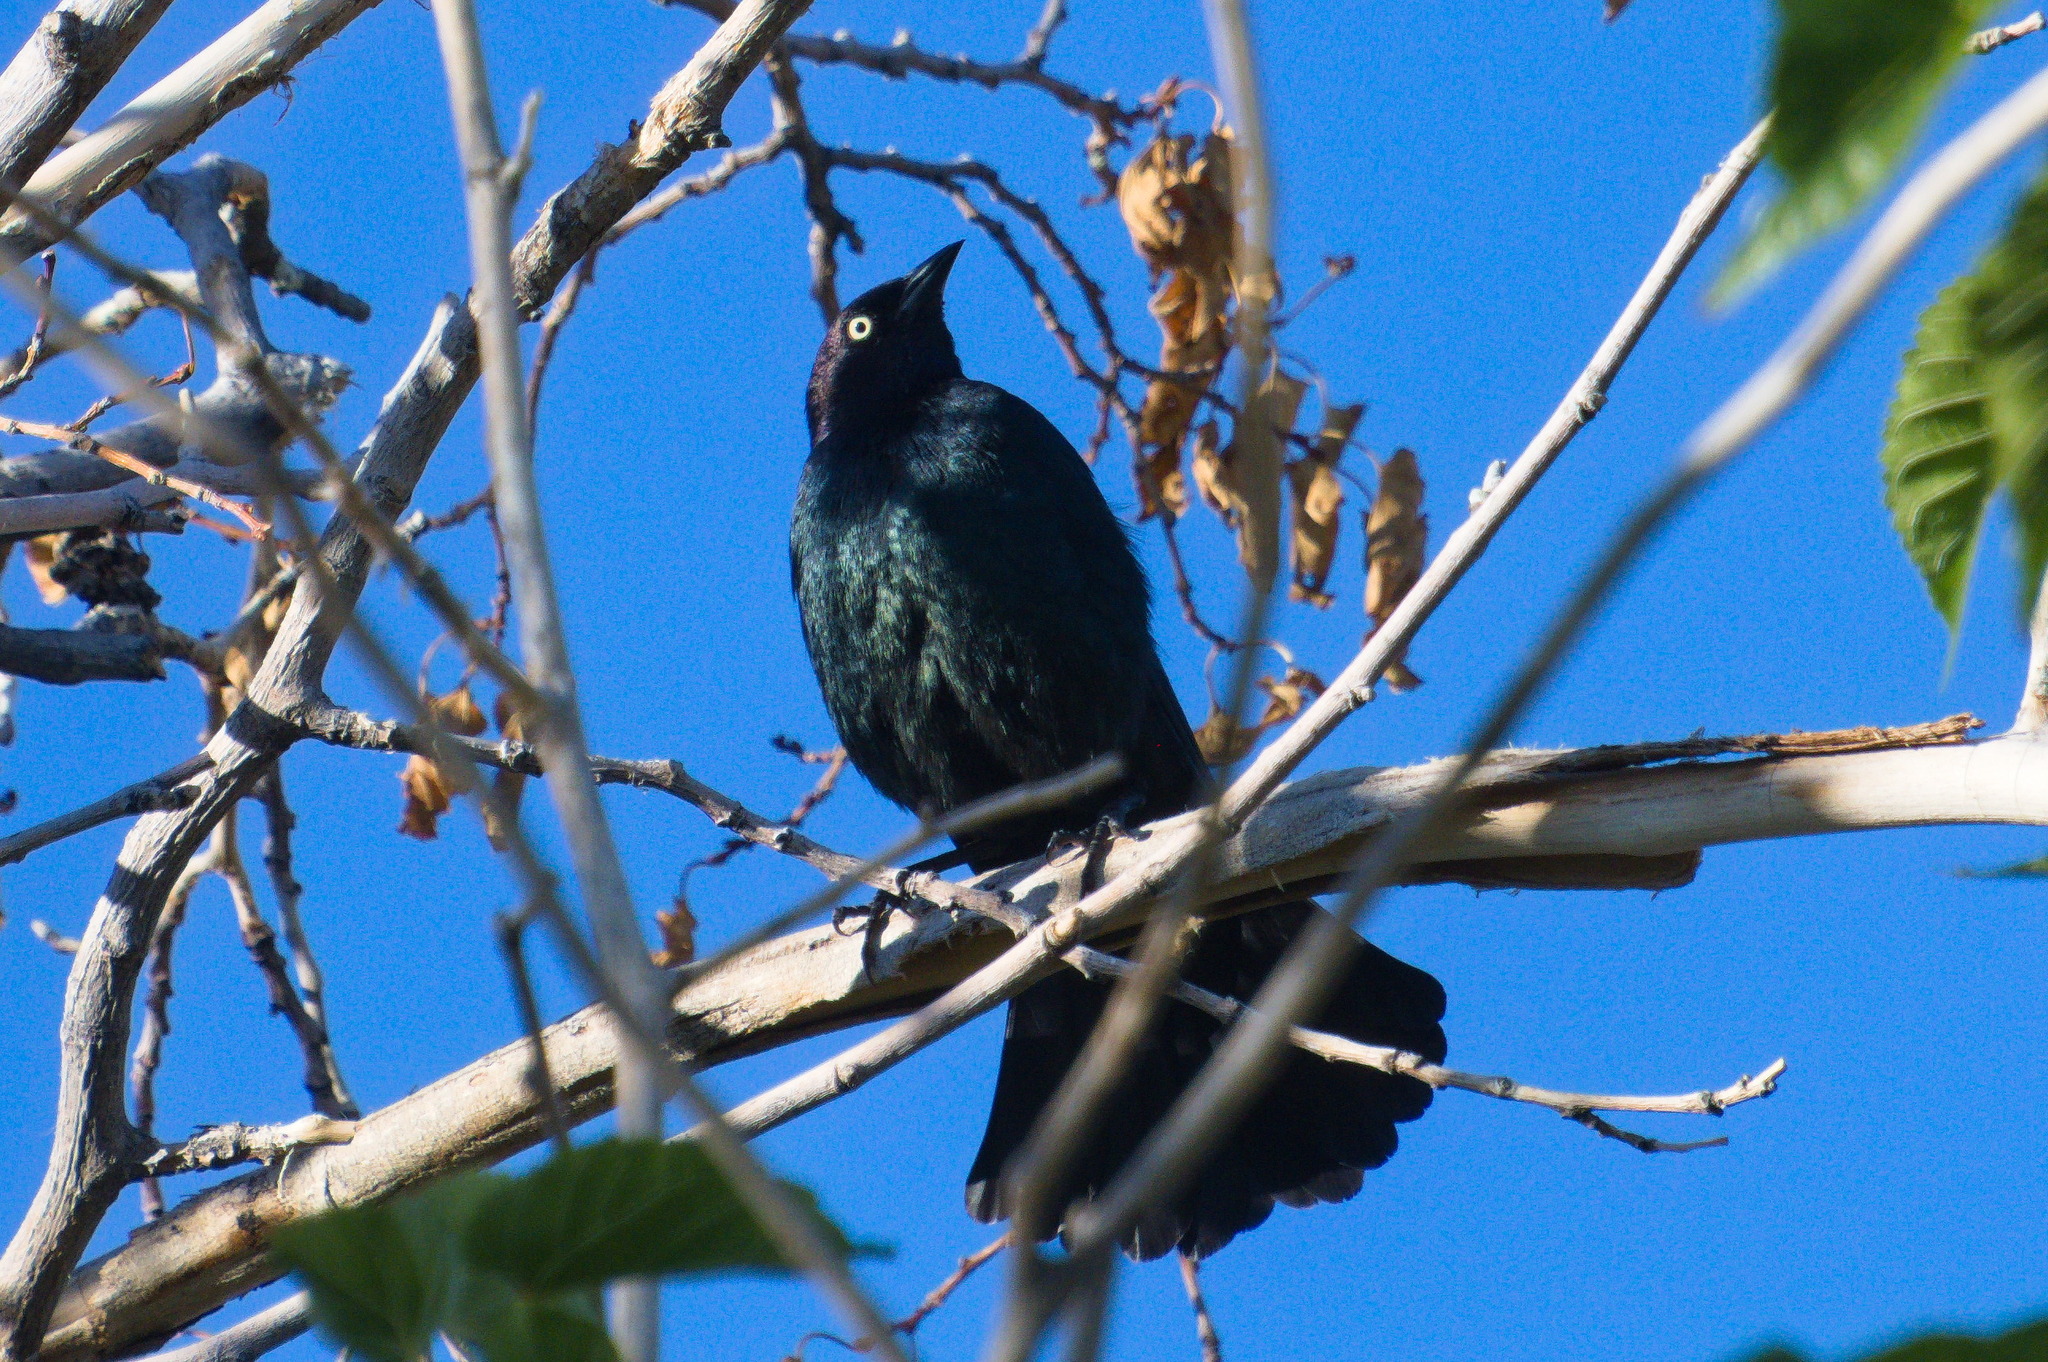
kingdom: Animalia
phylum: Chordata
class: Aves
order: Passeriformes
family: Icteridae
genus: Euphagus
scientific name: Euphagus cyanocephalus
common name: Brewer's blackbird
